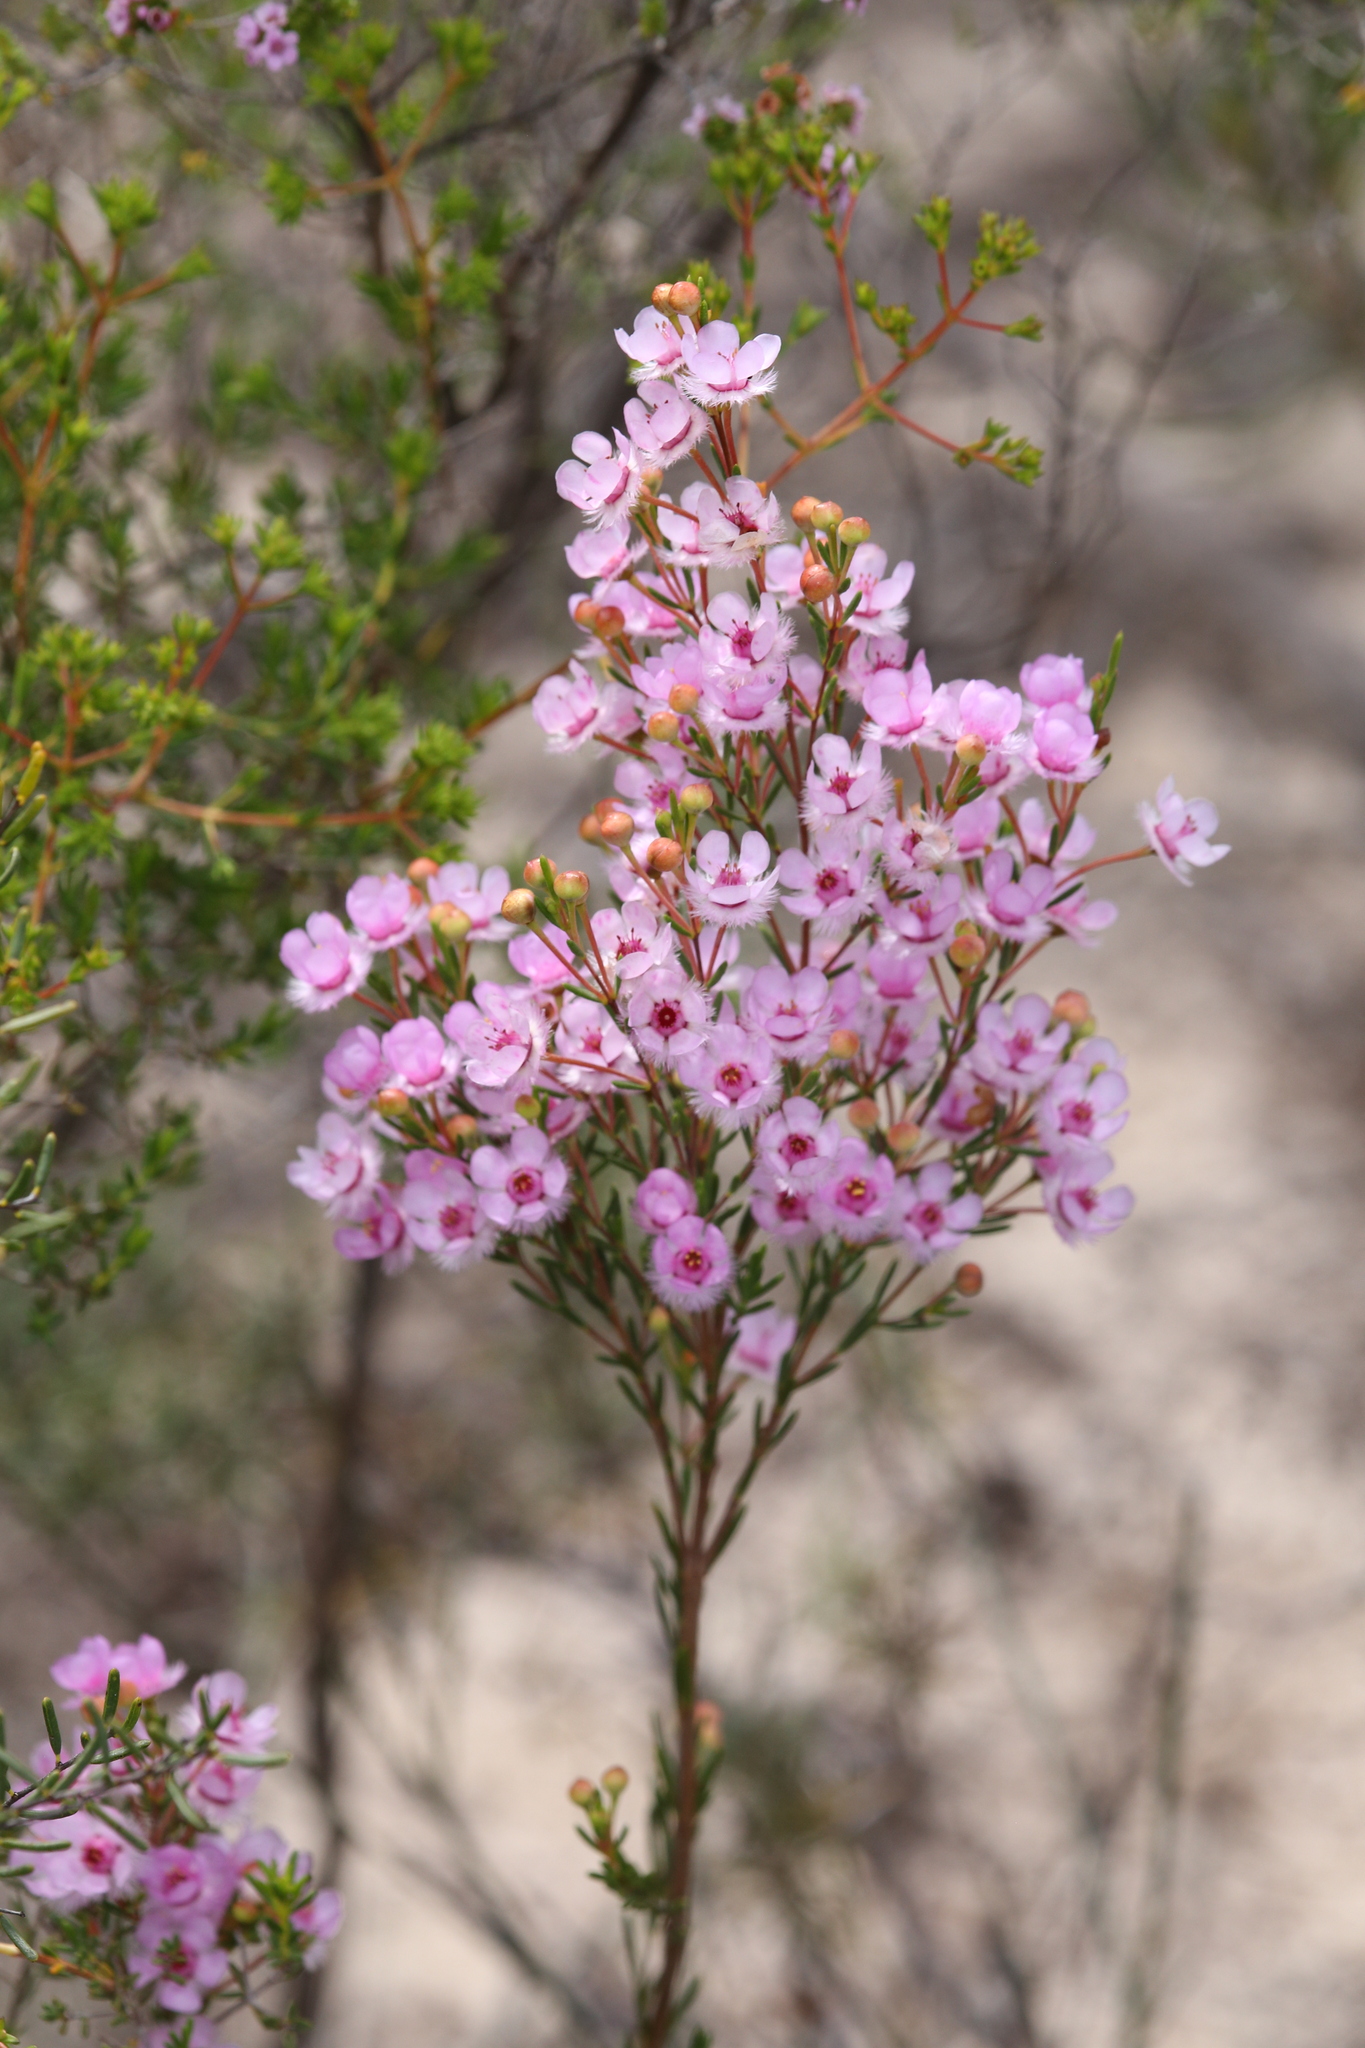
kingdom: Plantae
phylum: Tracheophyta
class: Magnoliopsida
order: Myrtales
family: Myrtaceae
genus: Verticordia
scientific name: Verticordia picta
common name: Painted feather-flower
